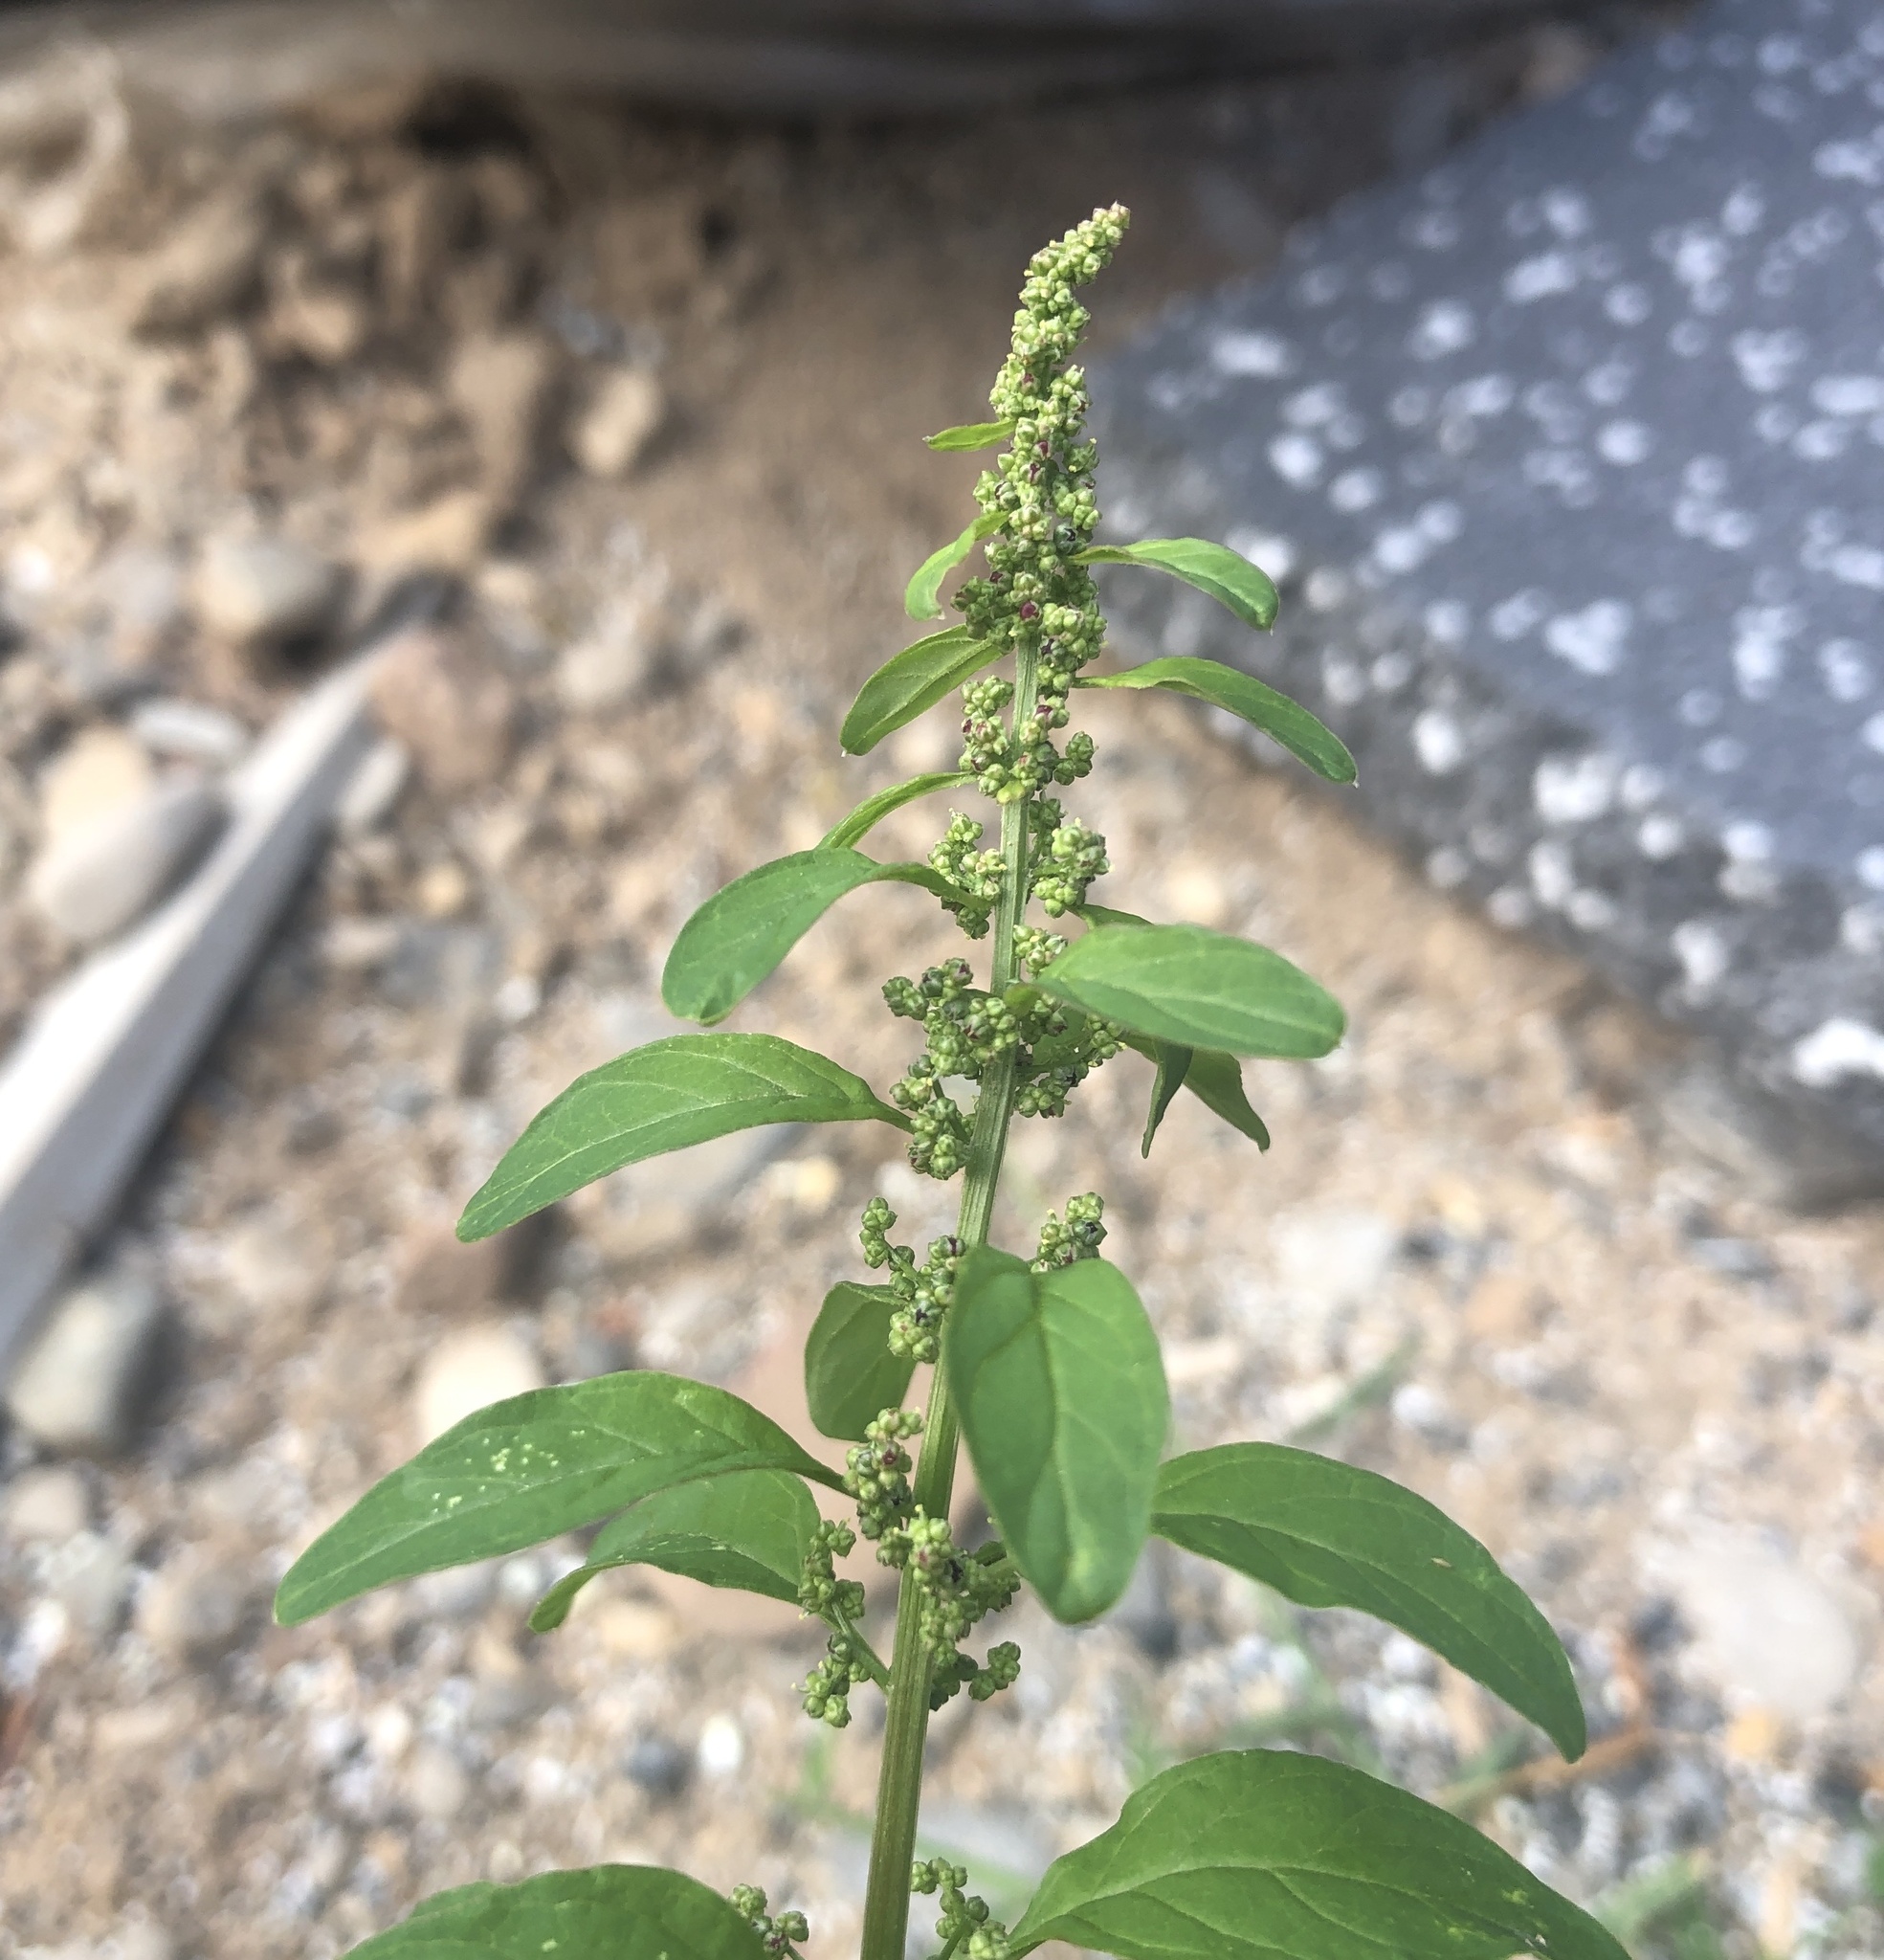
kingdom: Plantae
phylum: Tracheophyta
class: Magnoliopsida
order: Caryophyllales
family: Amaranthaceae
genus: Lipandra
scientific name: Lipandra polysperma
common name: Many-seed goosefoot
